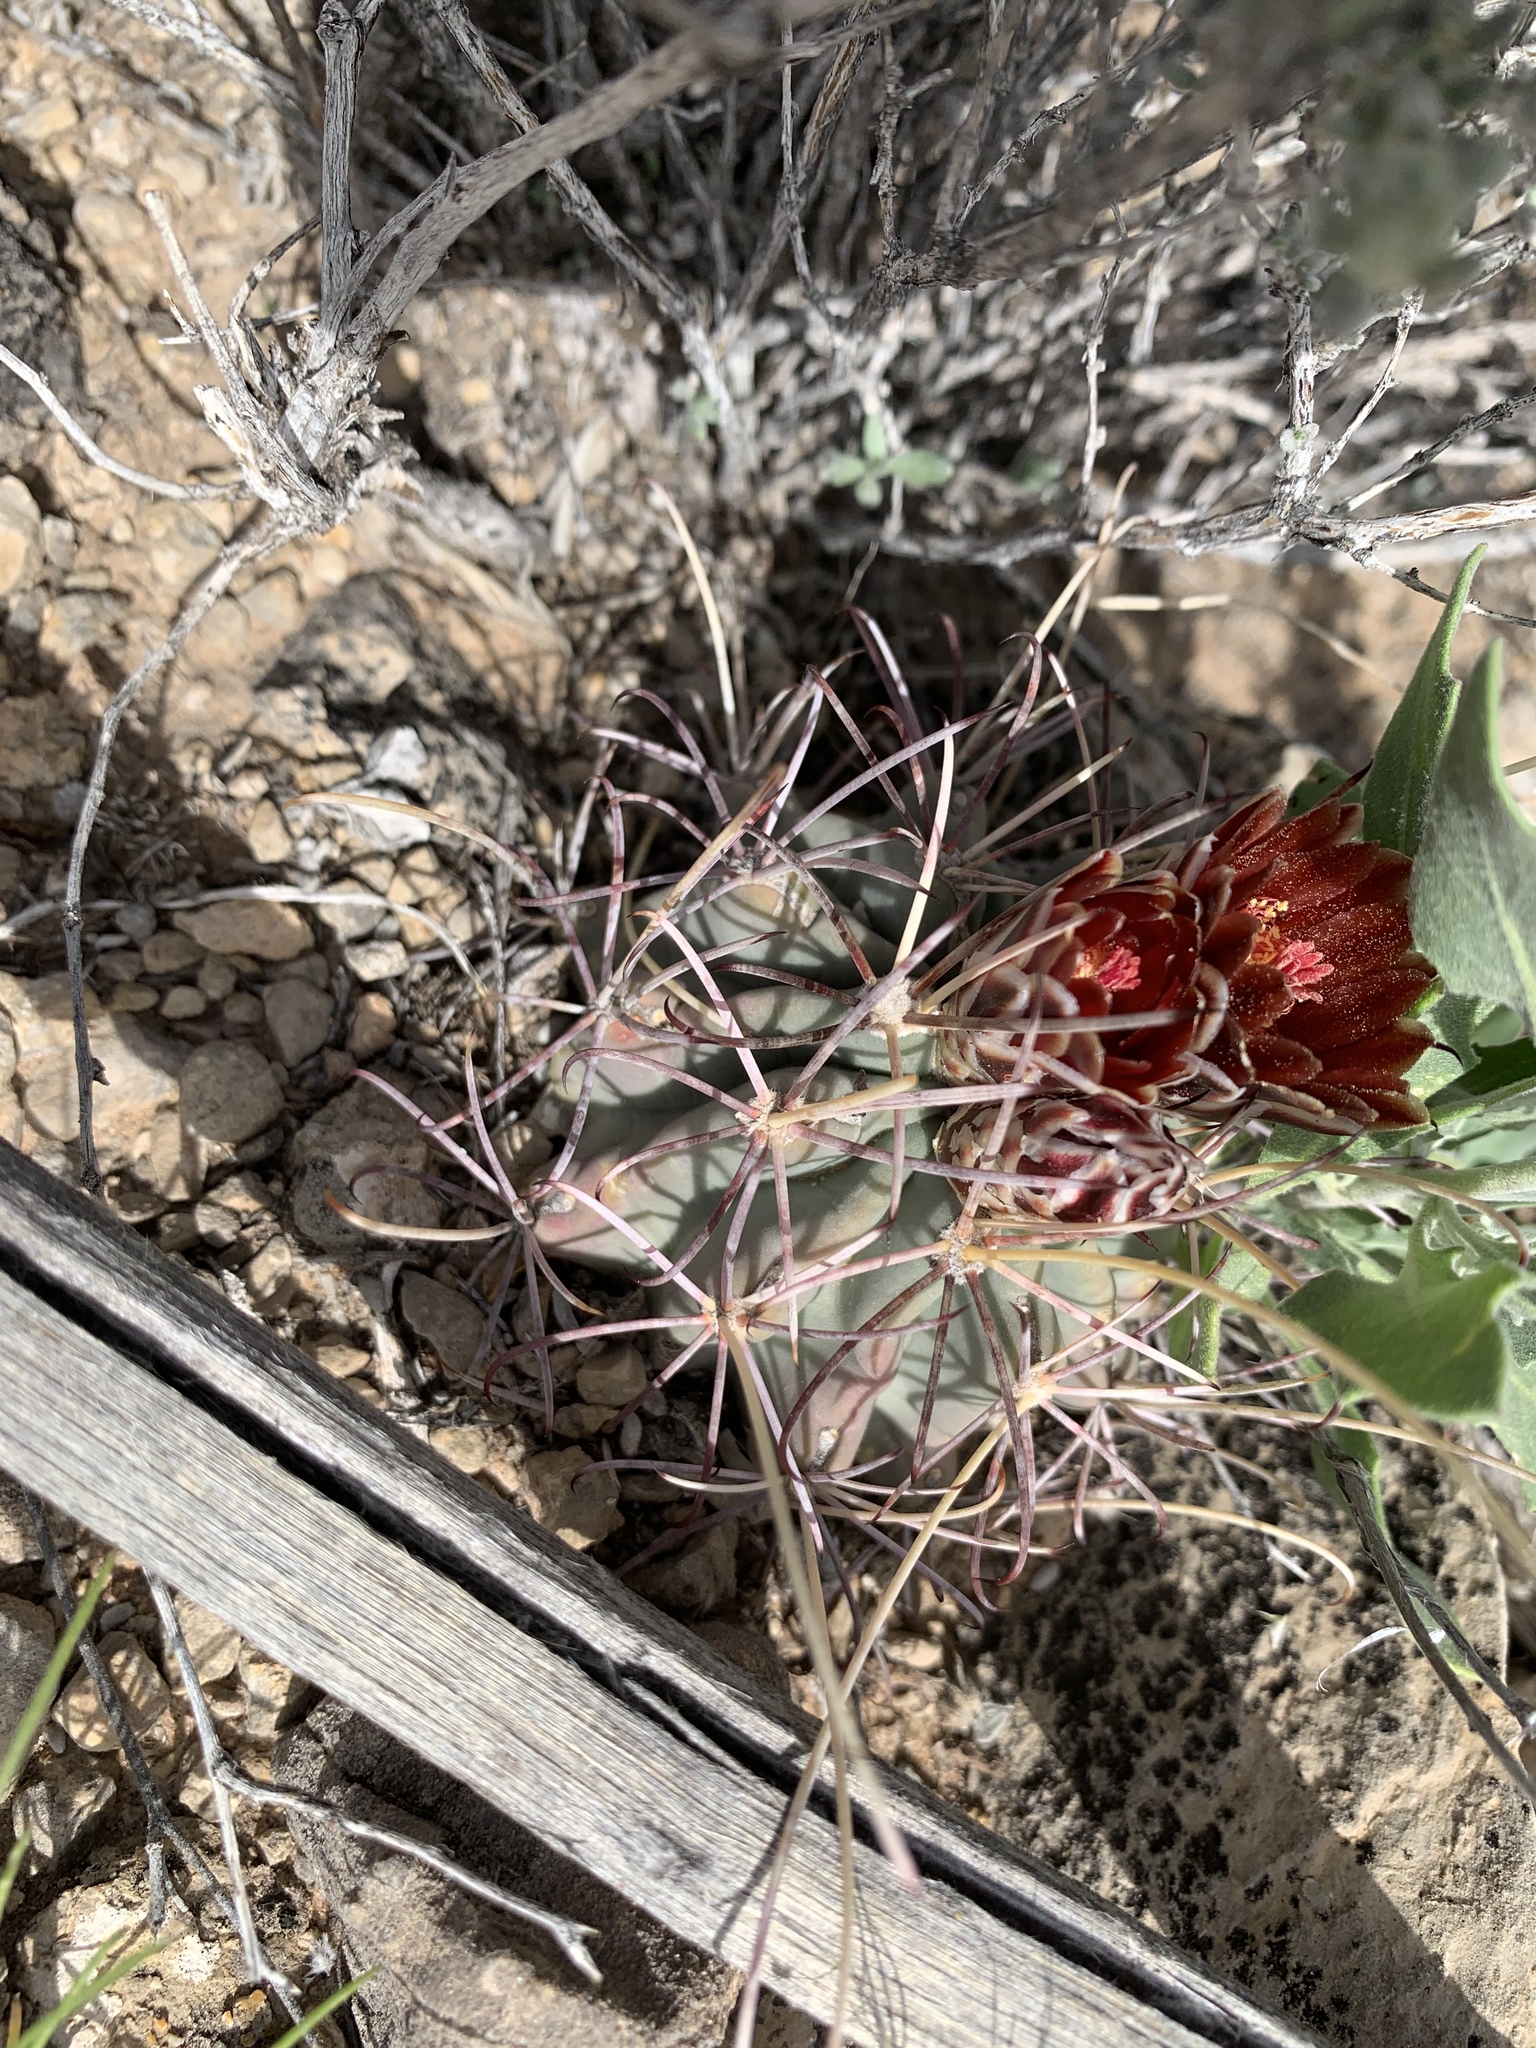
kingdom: Plantae
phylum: Tracheophyta
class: Magnoliopsida
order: Caryophyllales
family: Cactaceae
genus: Ferocactus
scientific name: Ferocactus uncinatus
